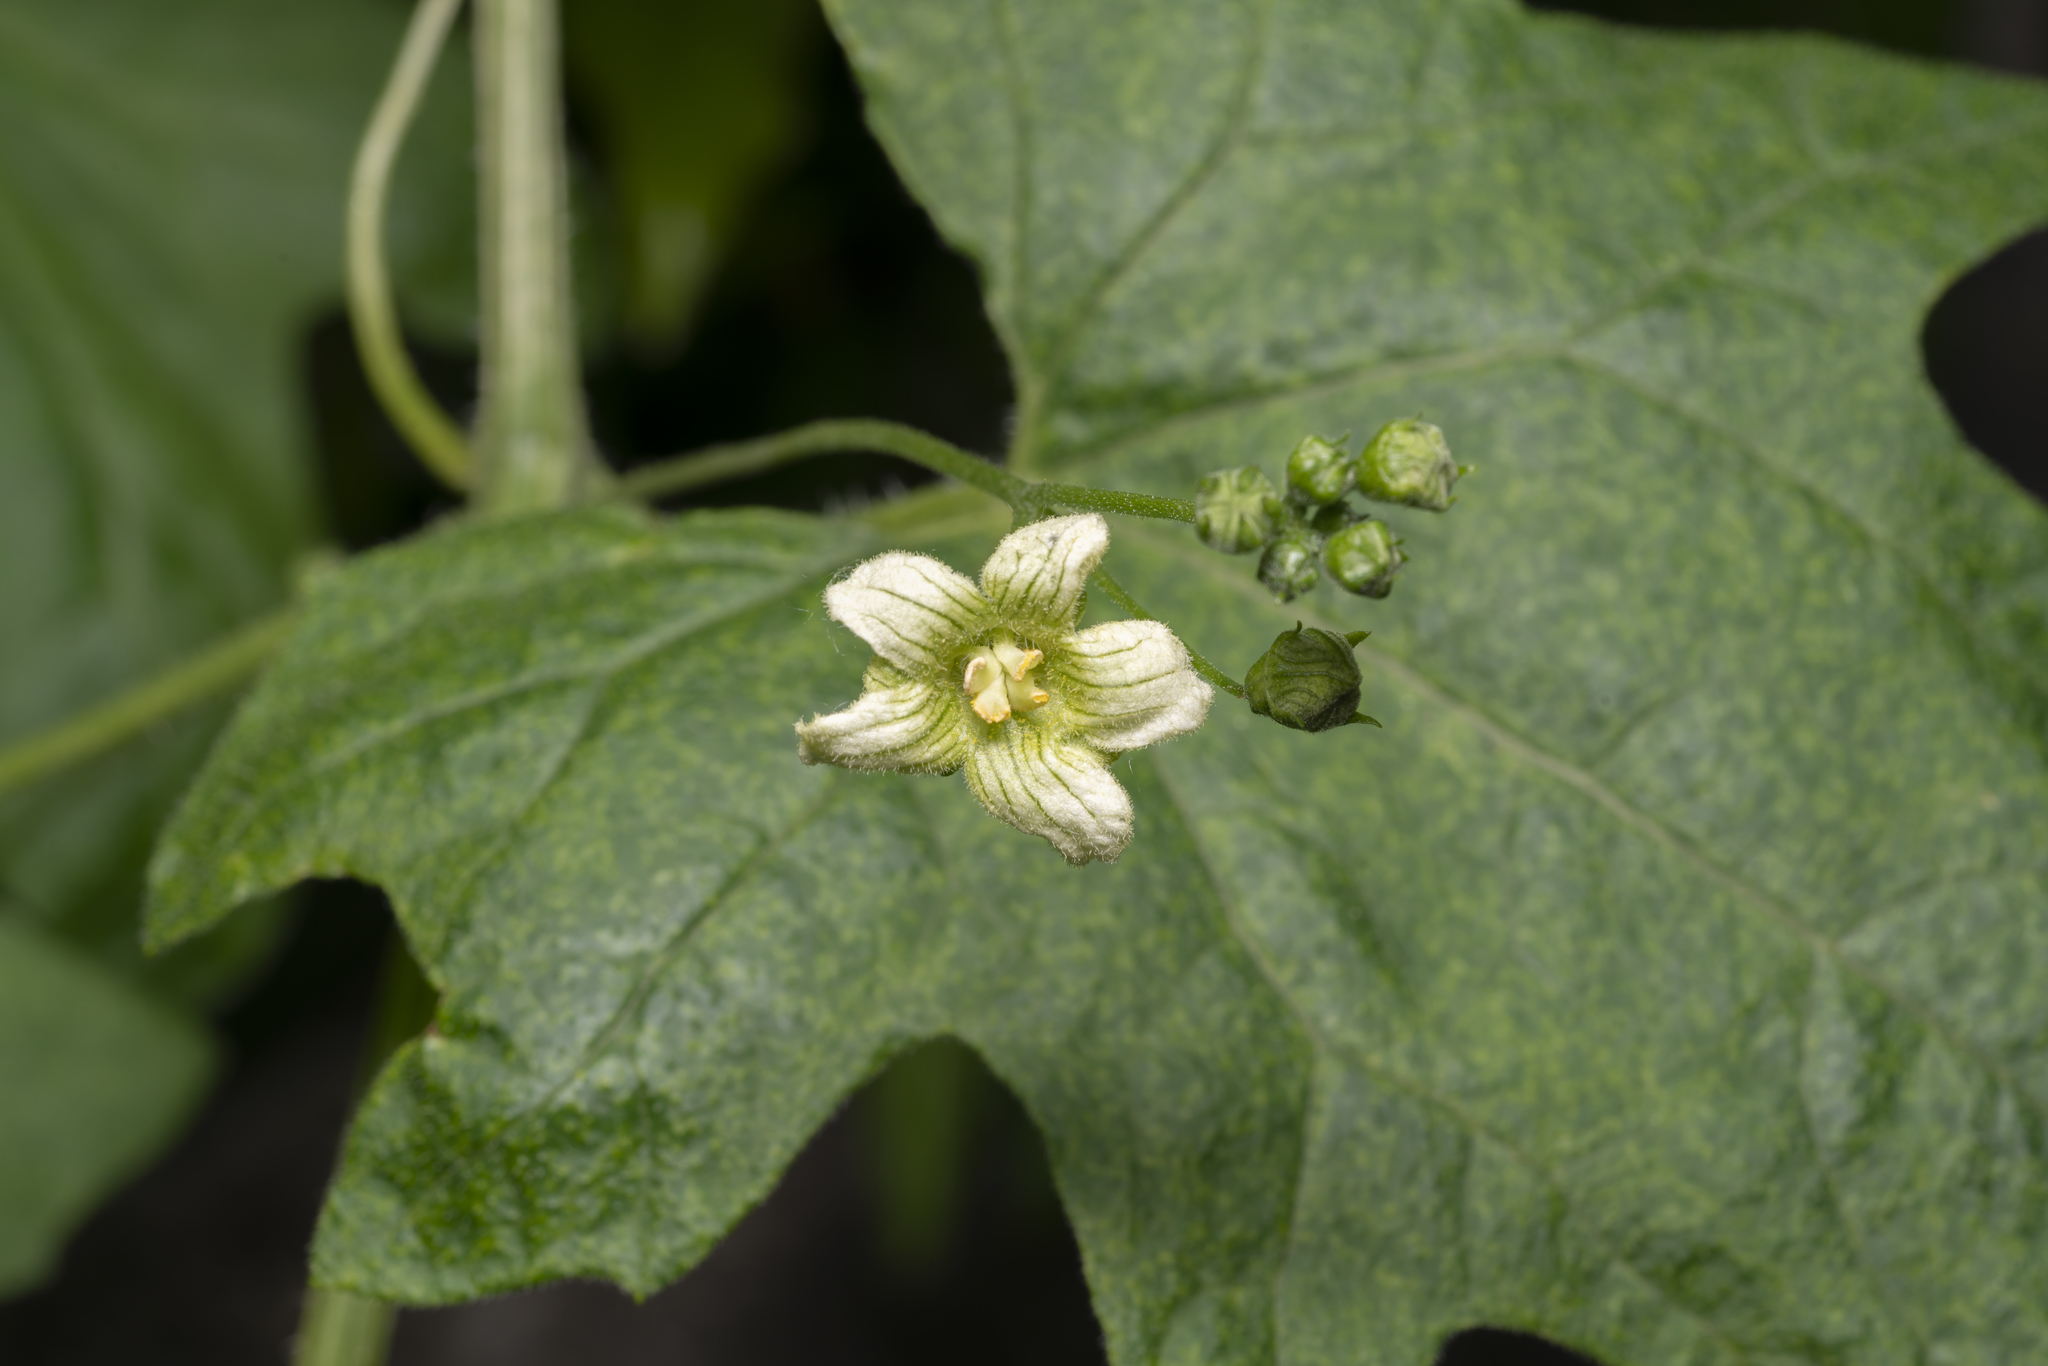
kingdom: Plantae
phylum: Tracheophyta
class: Magnoliopsida
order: Cucurbitales
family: Cucurbitaceae
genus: Bryonia
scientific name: Bryonia dioica
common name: White bryony
